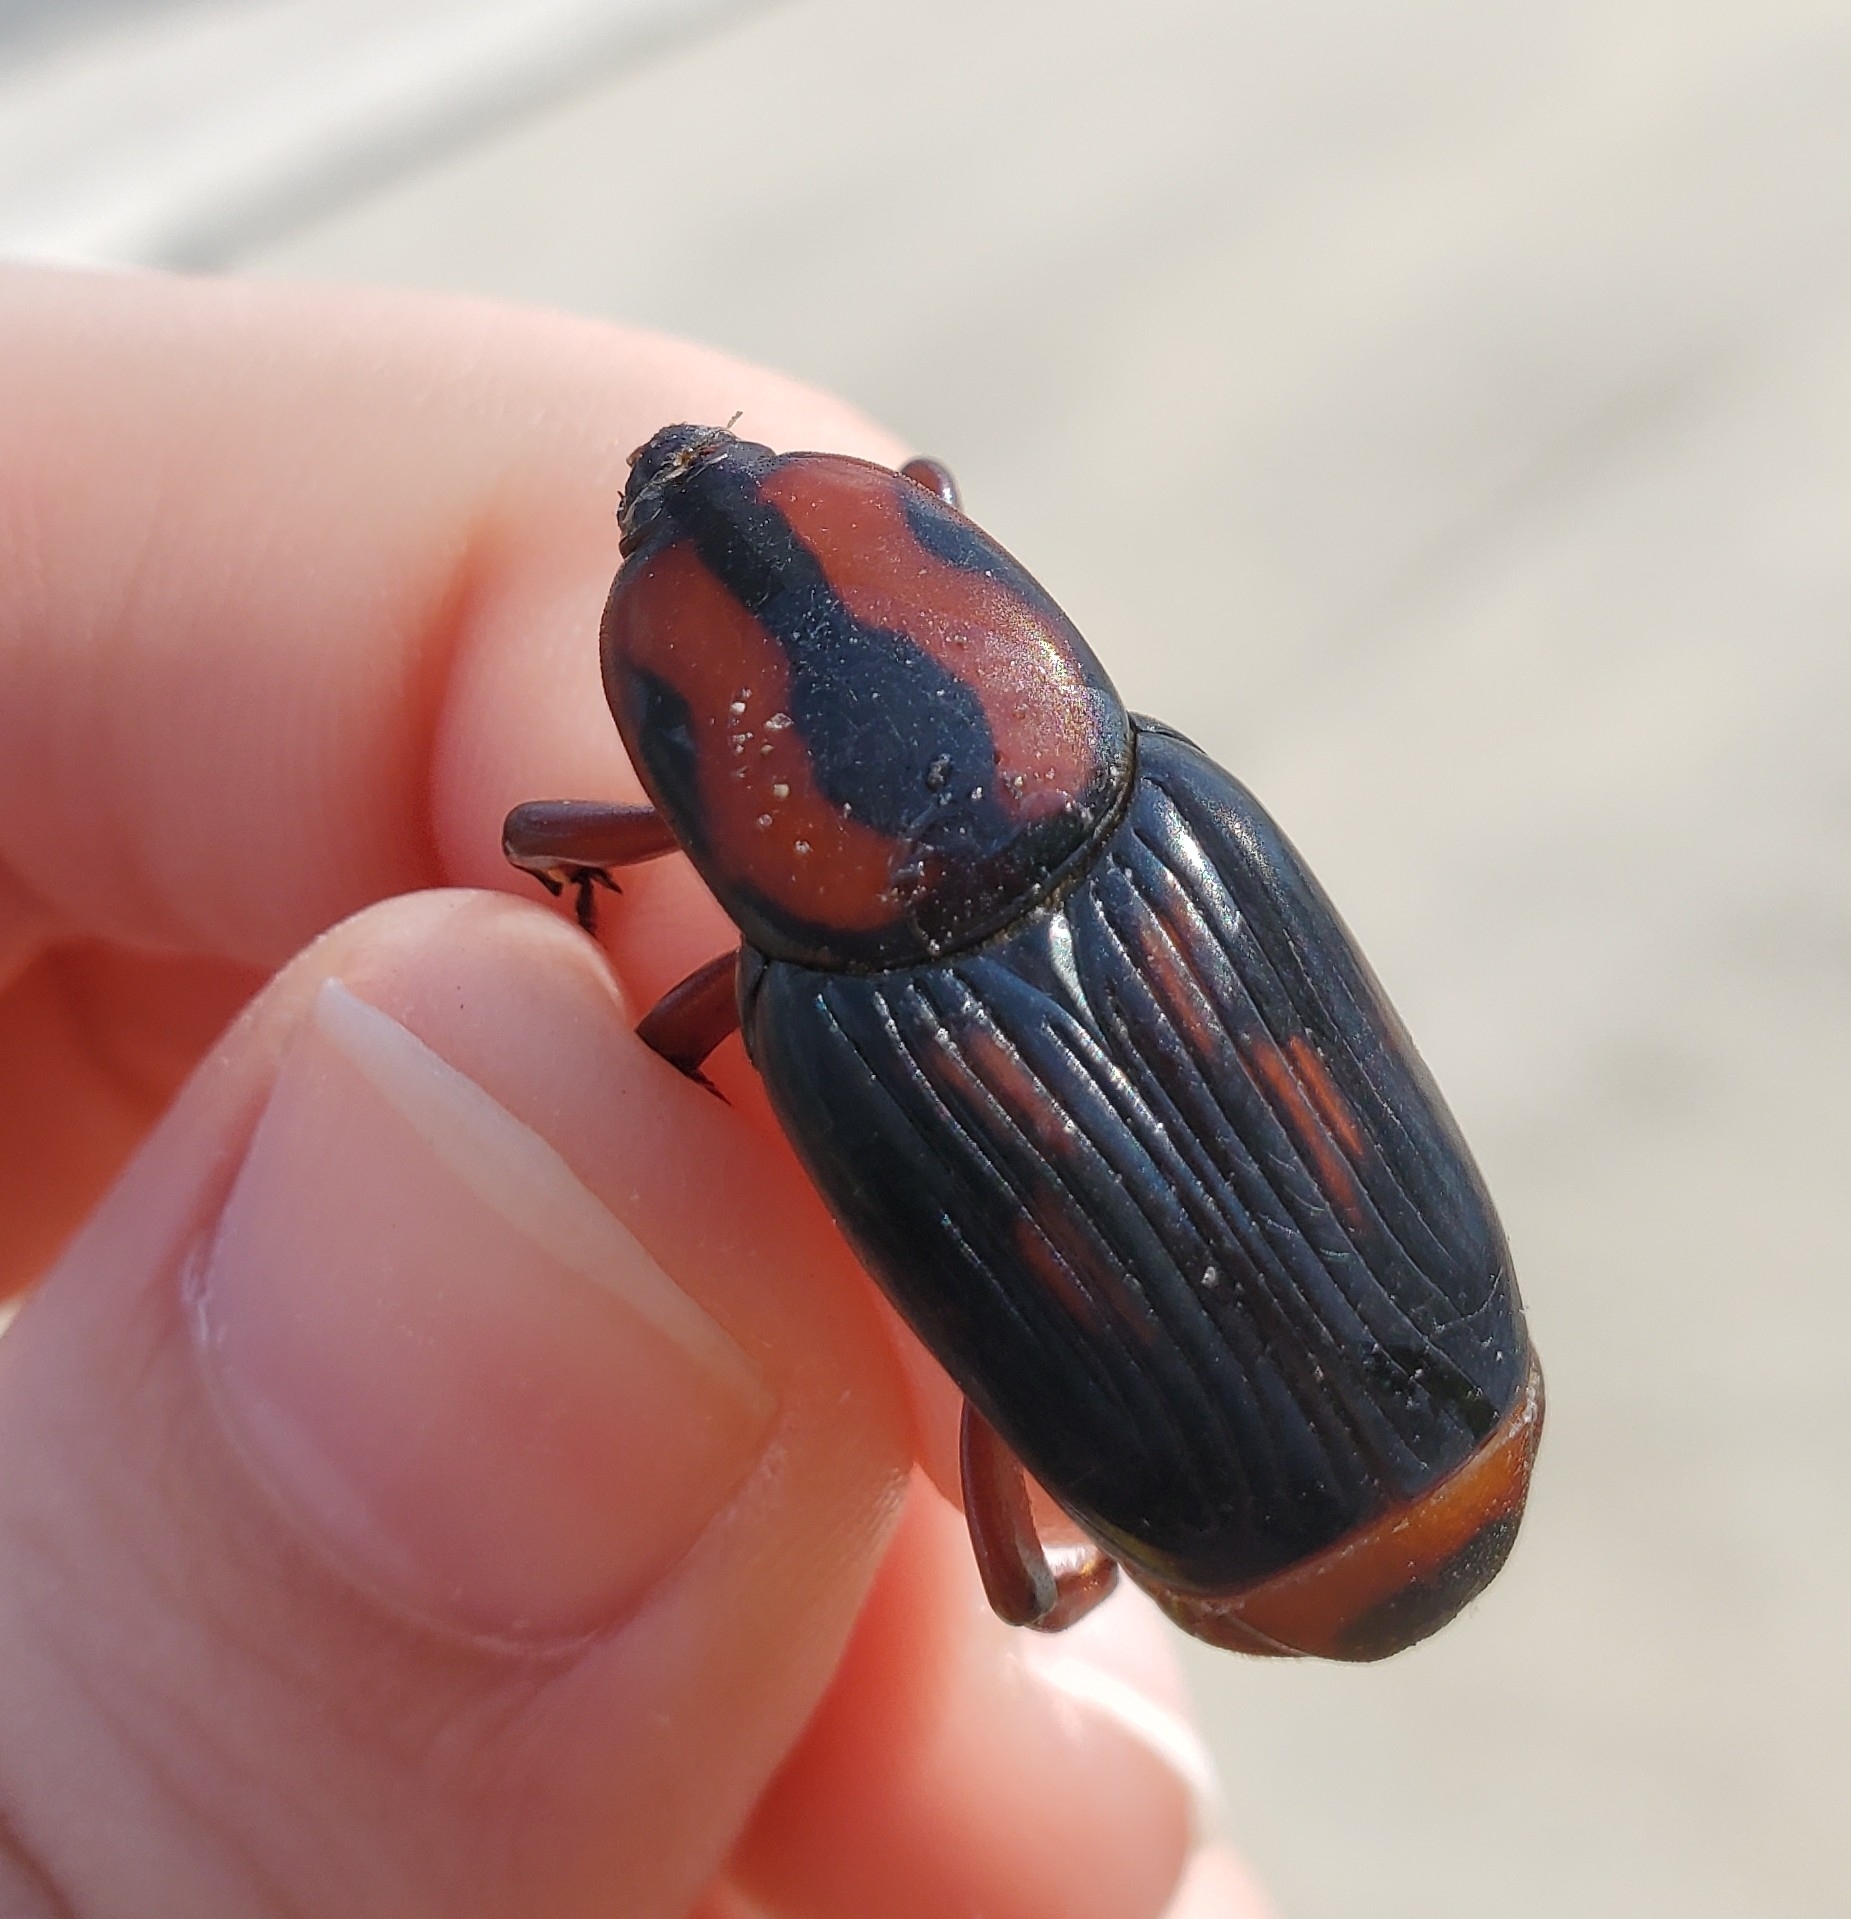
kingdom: Animalia
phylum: Arthropoda
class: Insecta
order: Coleoptera
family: Dryophthoridae
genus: Rhynchophorus
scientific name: Rhynchophorus cruentatus
